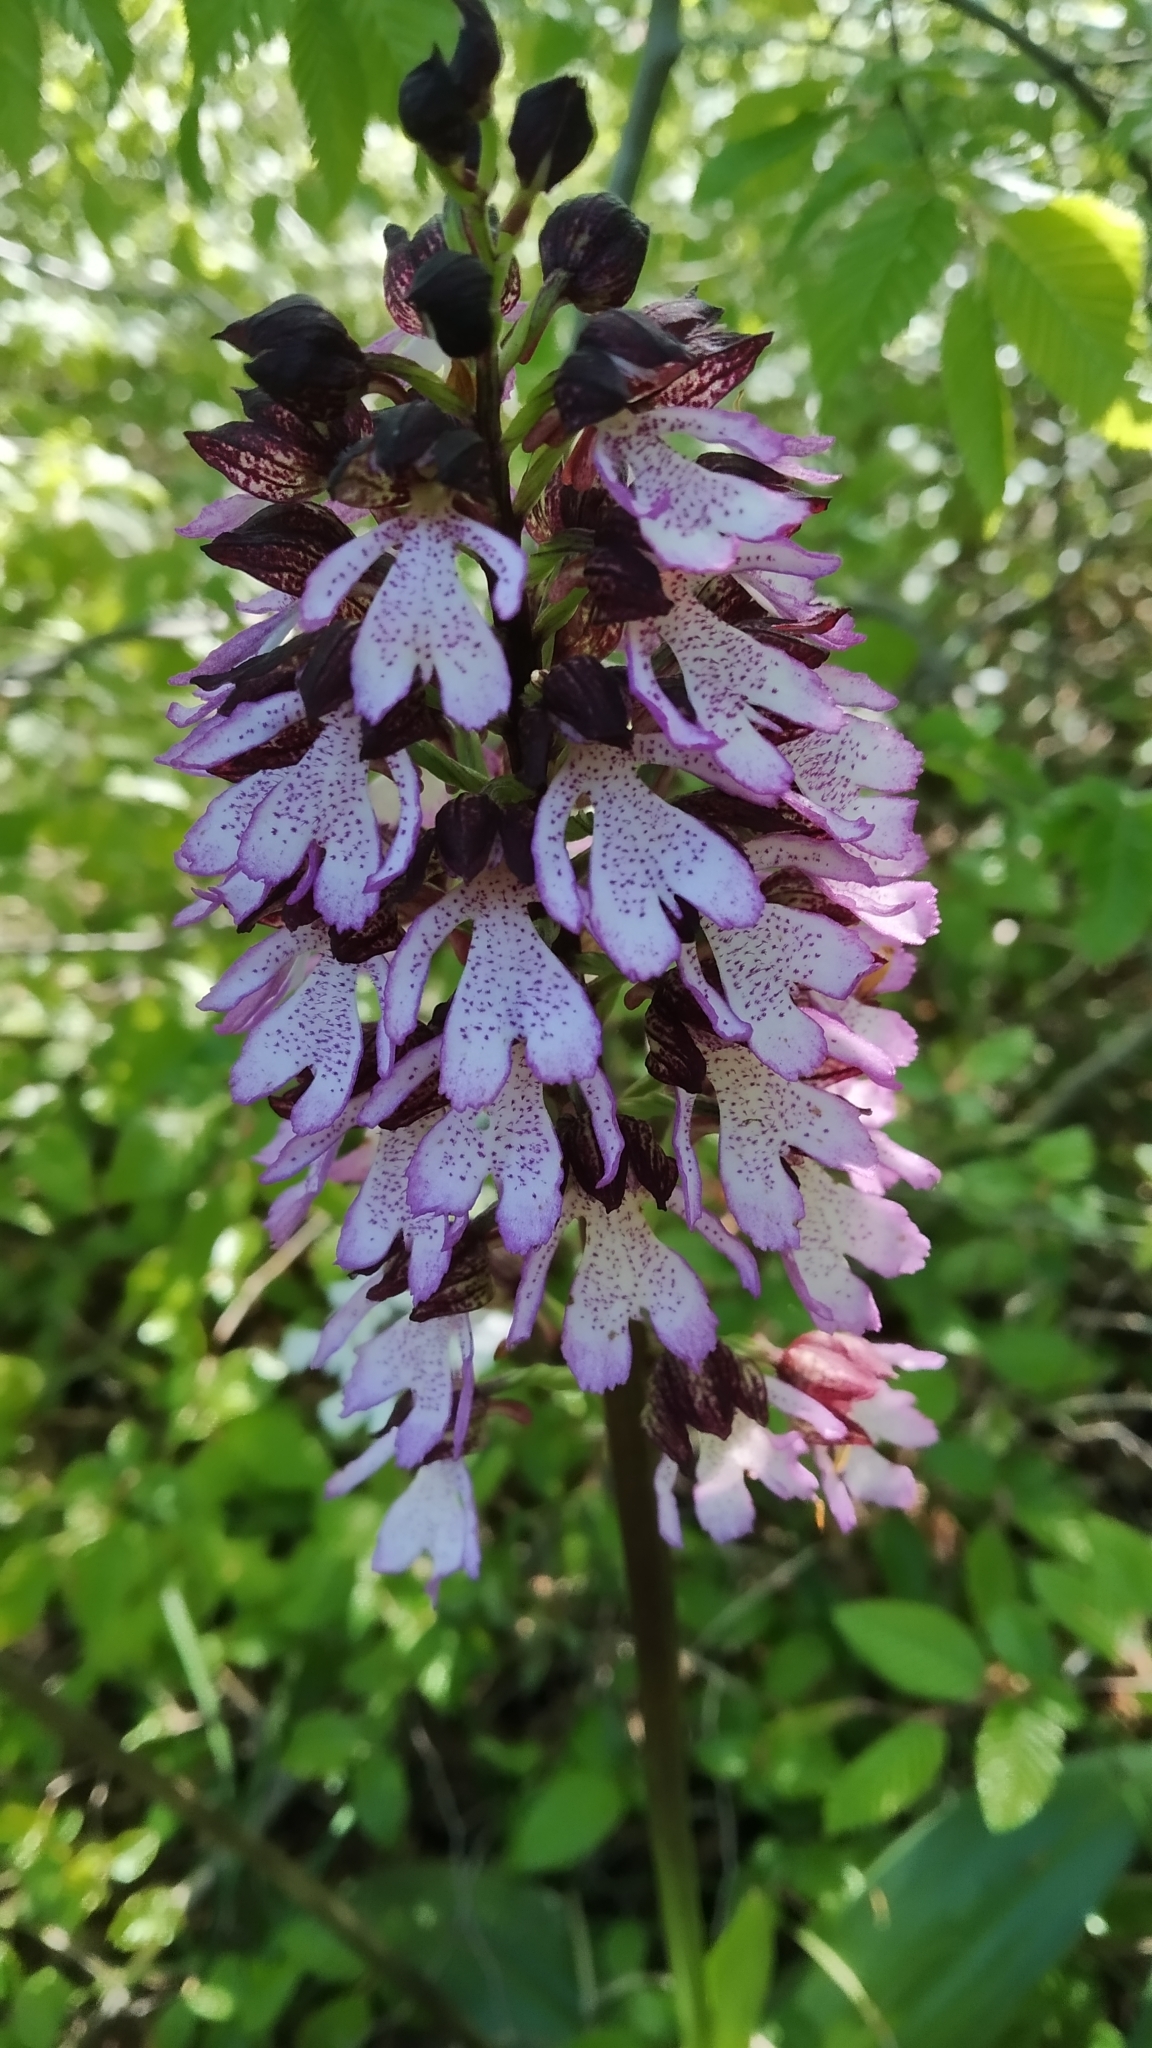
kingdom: Plantae
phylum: Tracheophyta
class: Liliopsida
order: Asparagales
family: Orchidaceae
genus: Orchis
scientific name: Orchis purpurea
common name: Lady orchid
